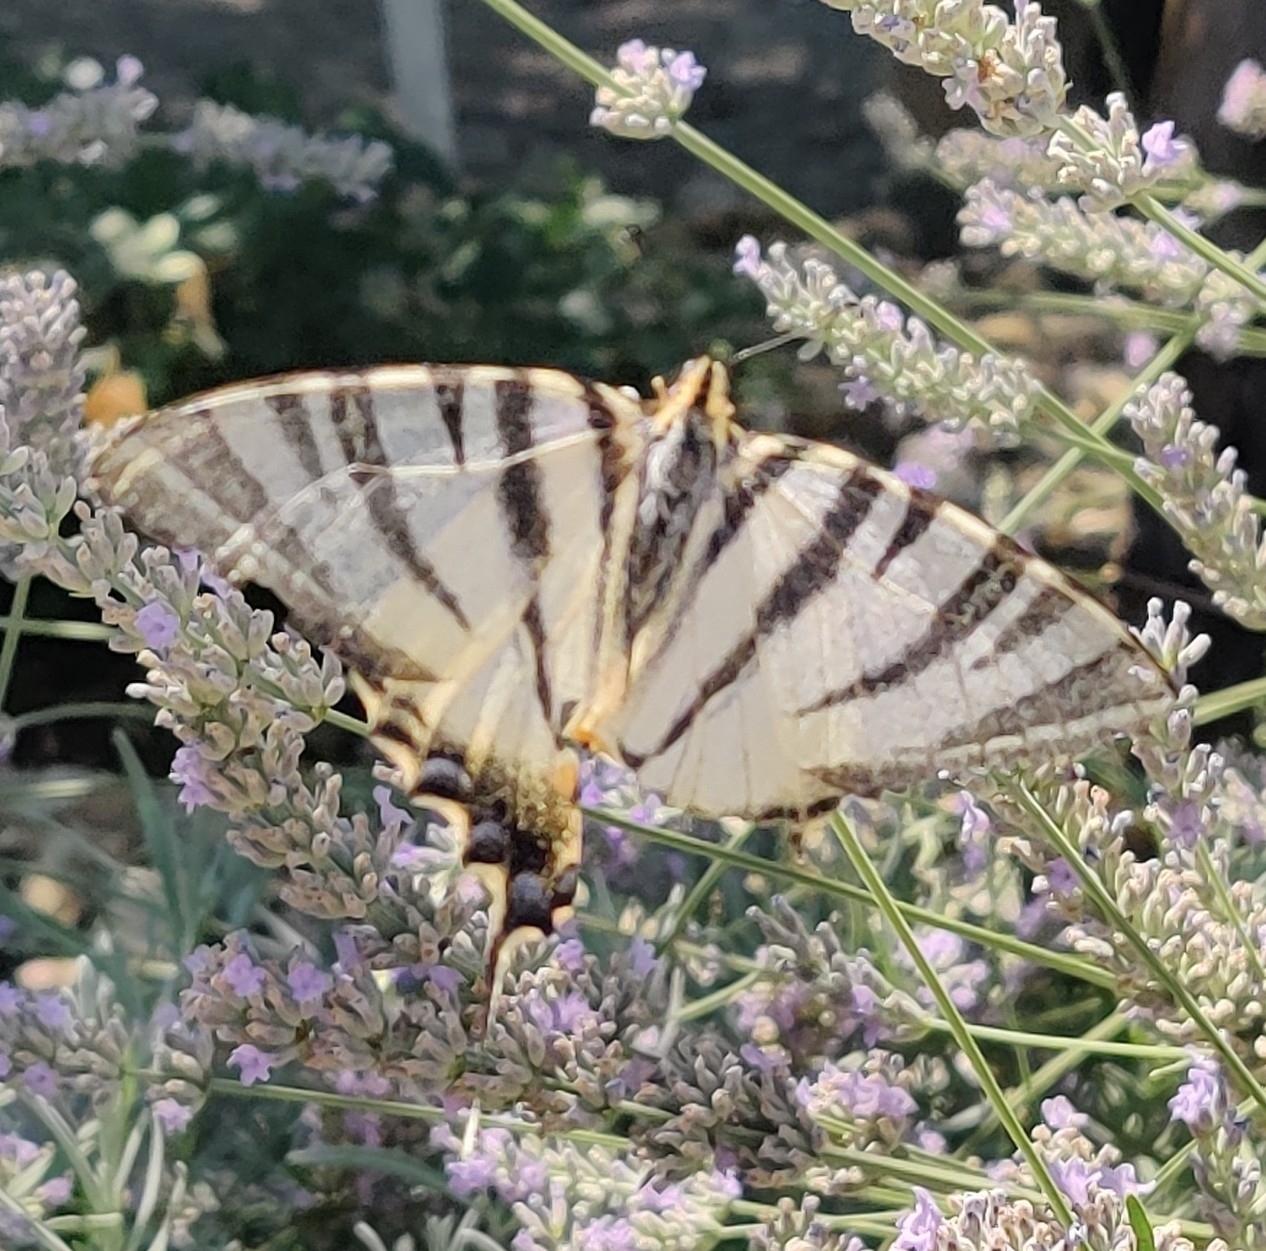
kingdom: Animalia
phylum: Arthropoda
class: Insecta
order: Lepidoptera
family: Papilionidae
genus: Iphiclides
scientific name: Iphiclides podalirius
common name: Scarce swallowtail
